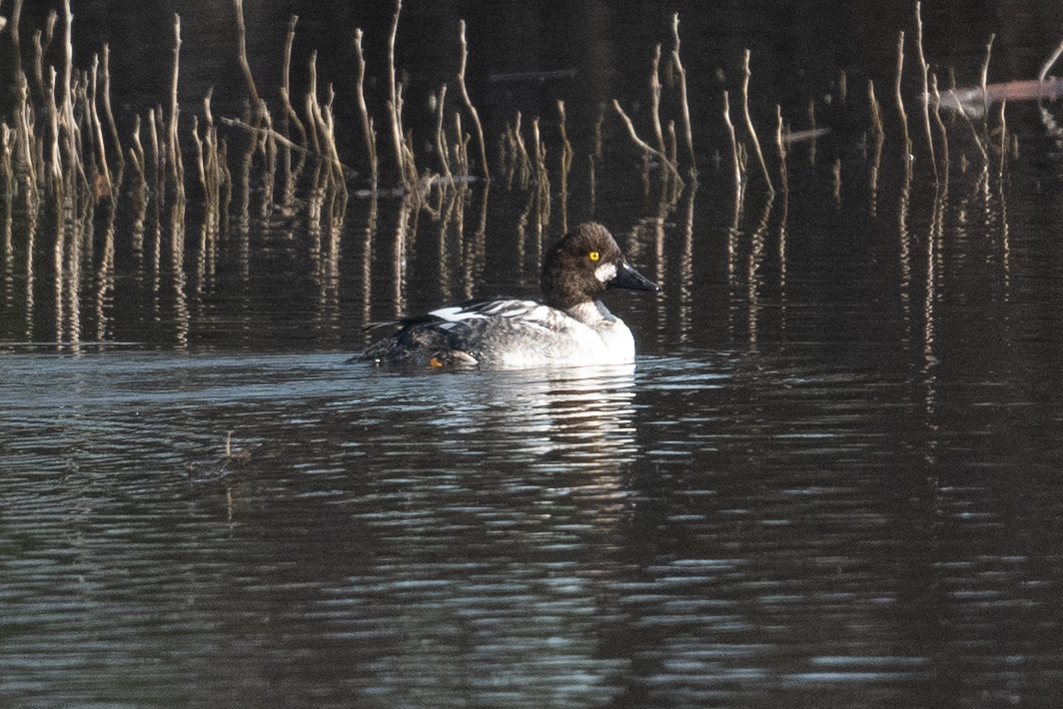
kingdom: Animalia
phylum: Chordata
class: Aves
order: Anseriformes
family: Anatidae
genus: Bucephala
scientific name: Bucephala clangula
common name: Common goldeneye
